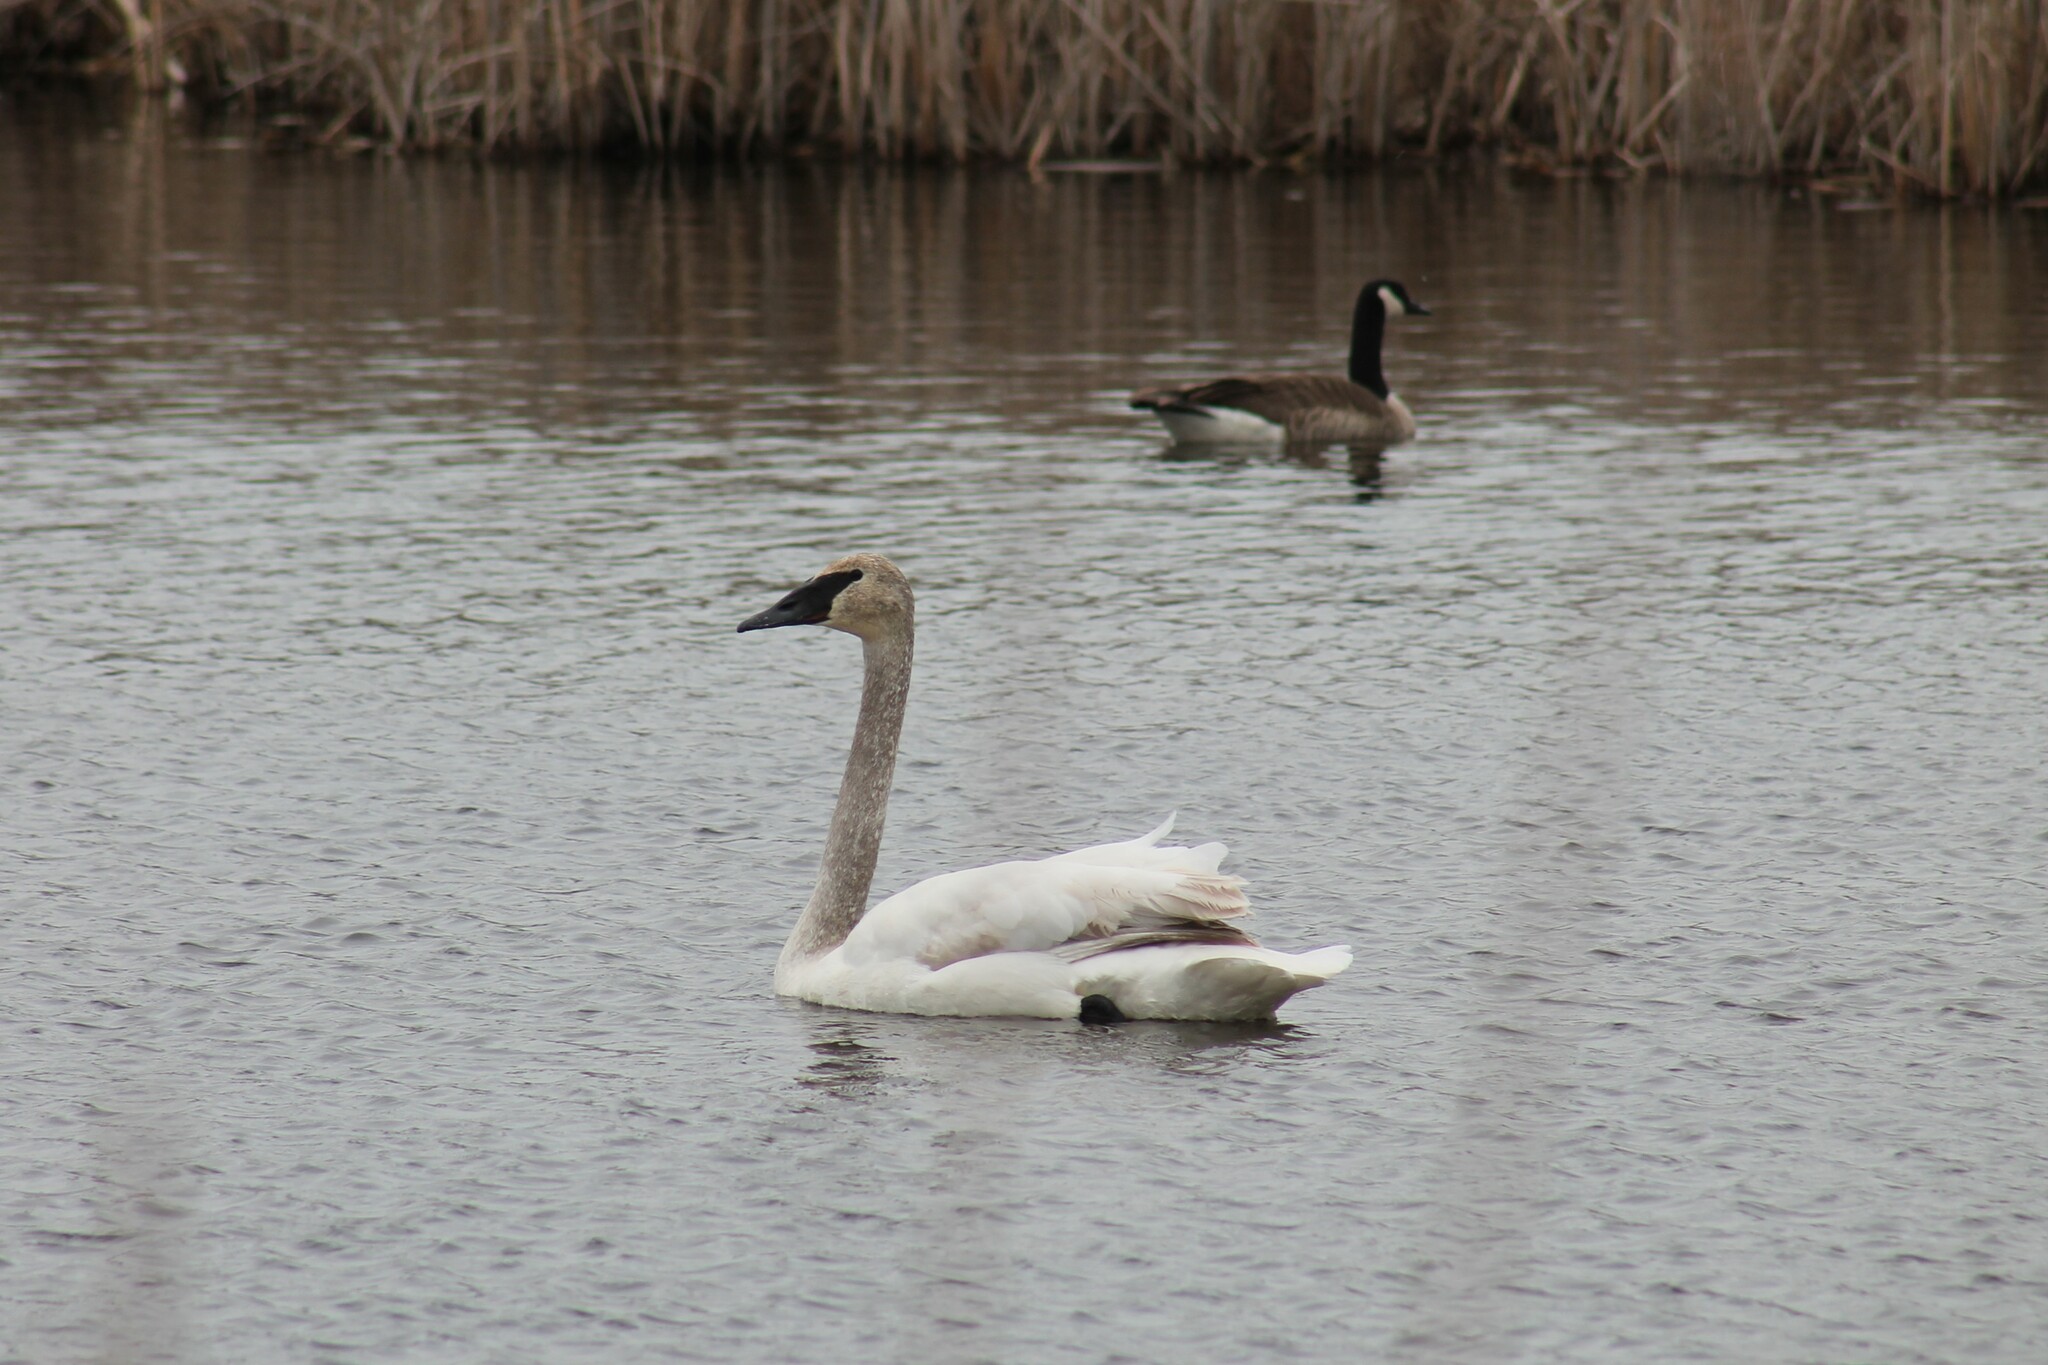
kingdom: Animalia
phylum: Chordata
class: Aves
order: Anseriformes
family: Anatidae
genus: Cygnus
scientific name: Cygnus buccinator
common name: Trumpeter swan
